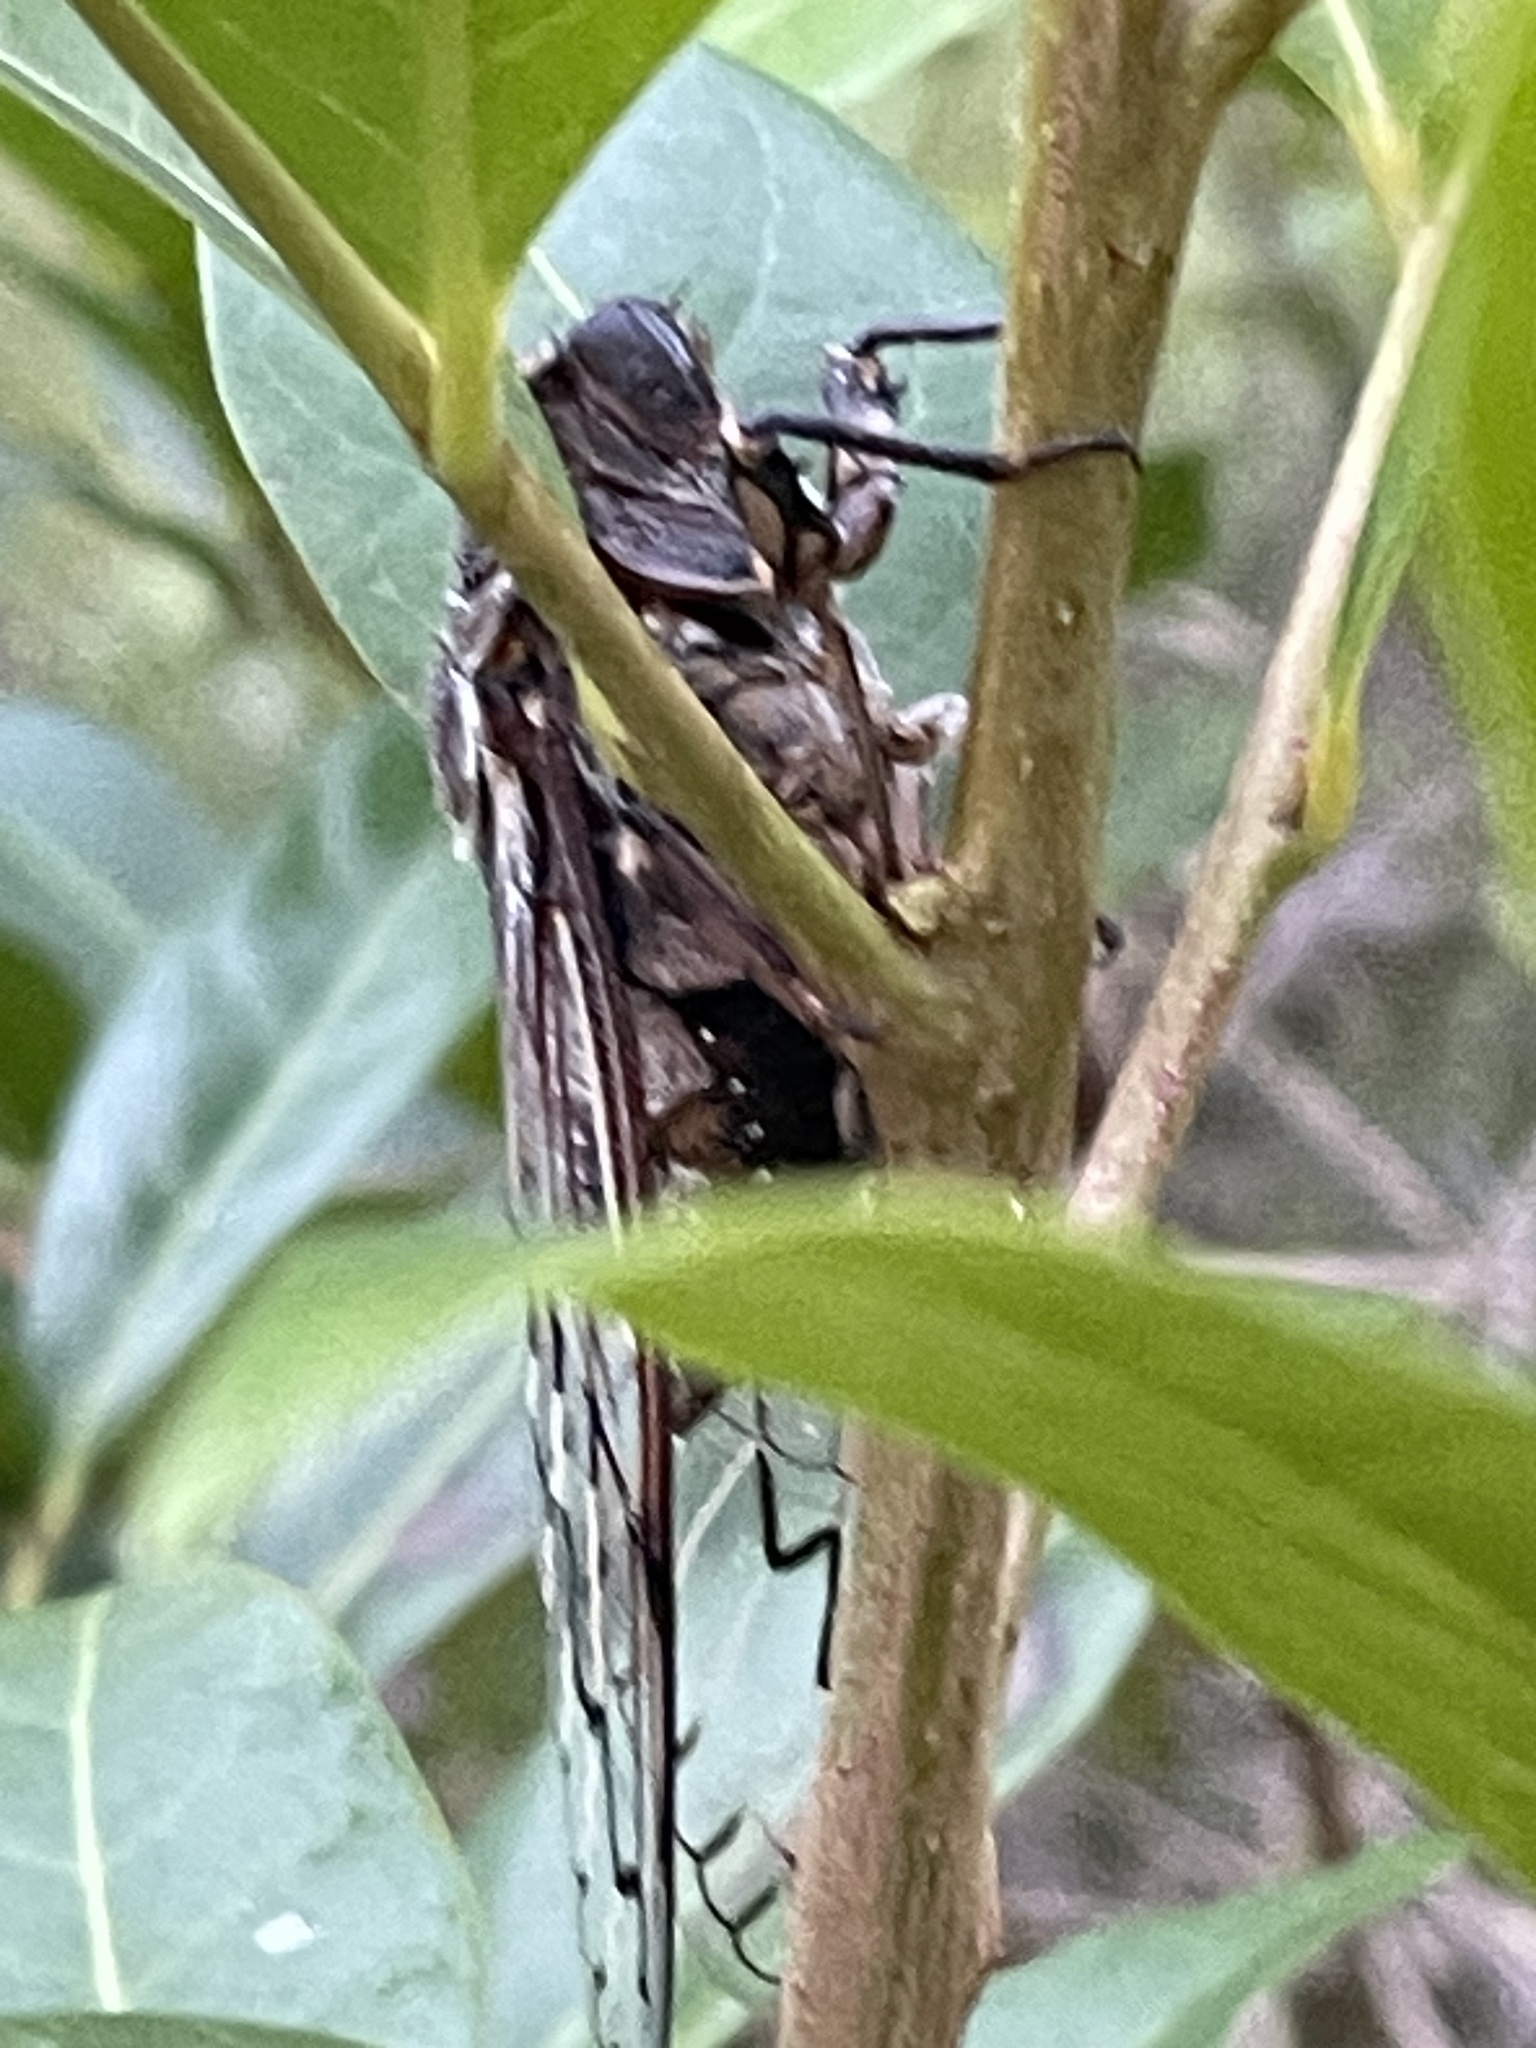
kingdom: Animalia
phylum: Arthropoda
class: Insecta
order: Hemiptera
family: Cicadidae
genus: Henicopsaltria
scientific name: Henicopsaltria eydouxii
